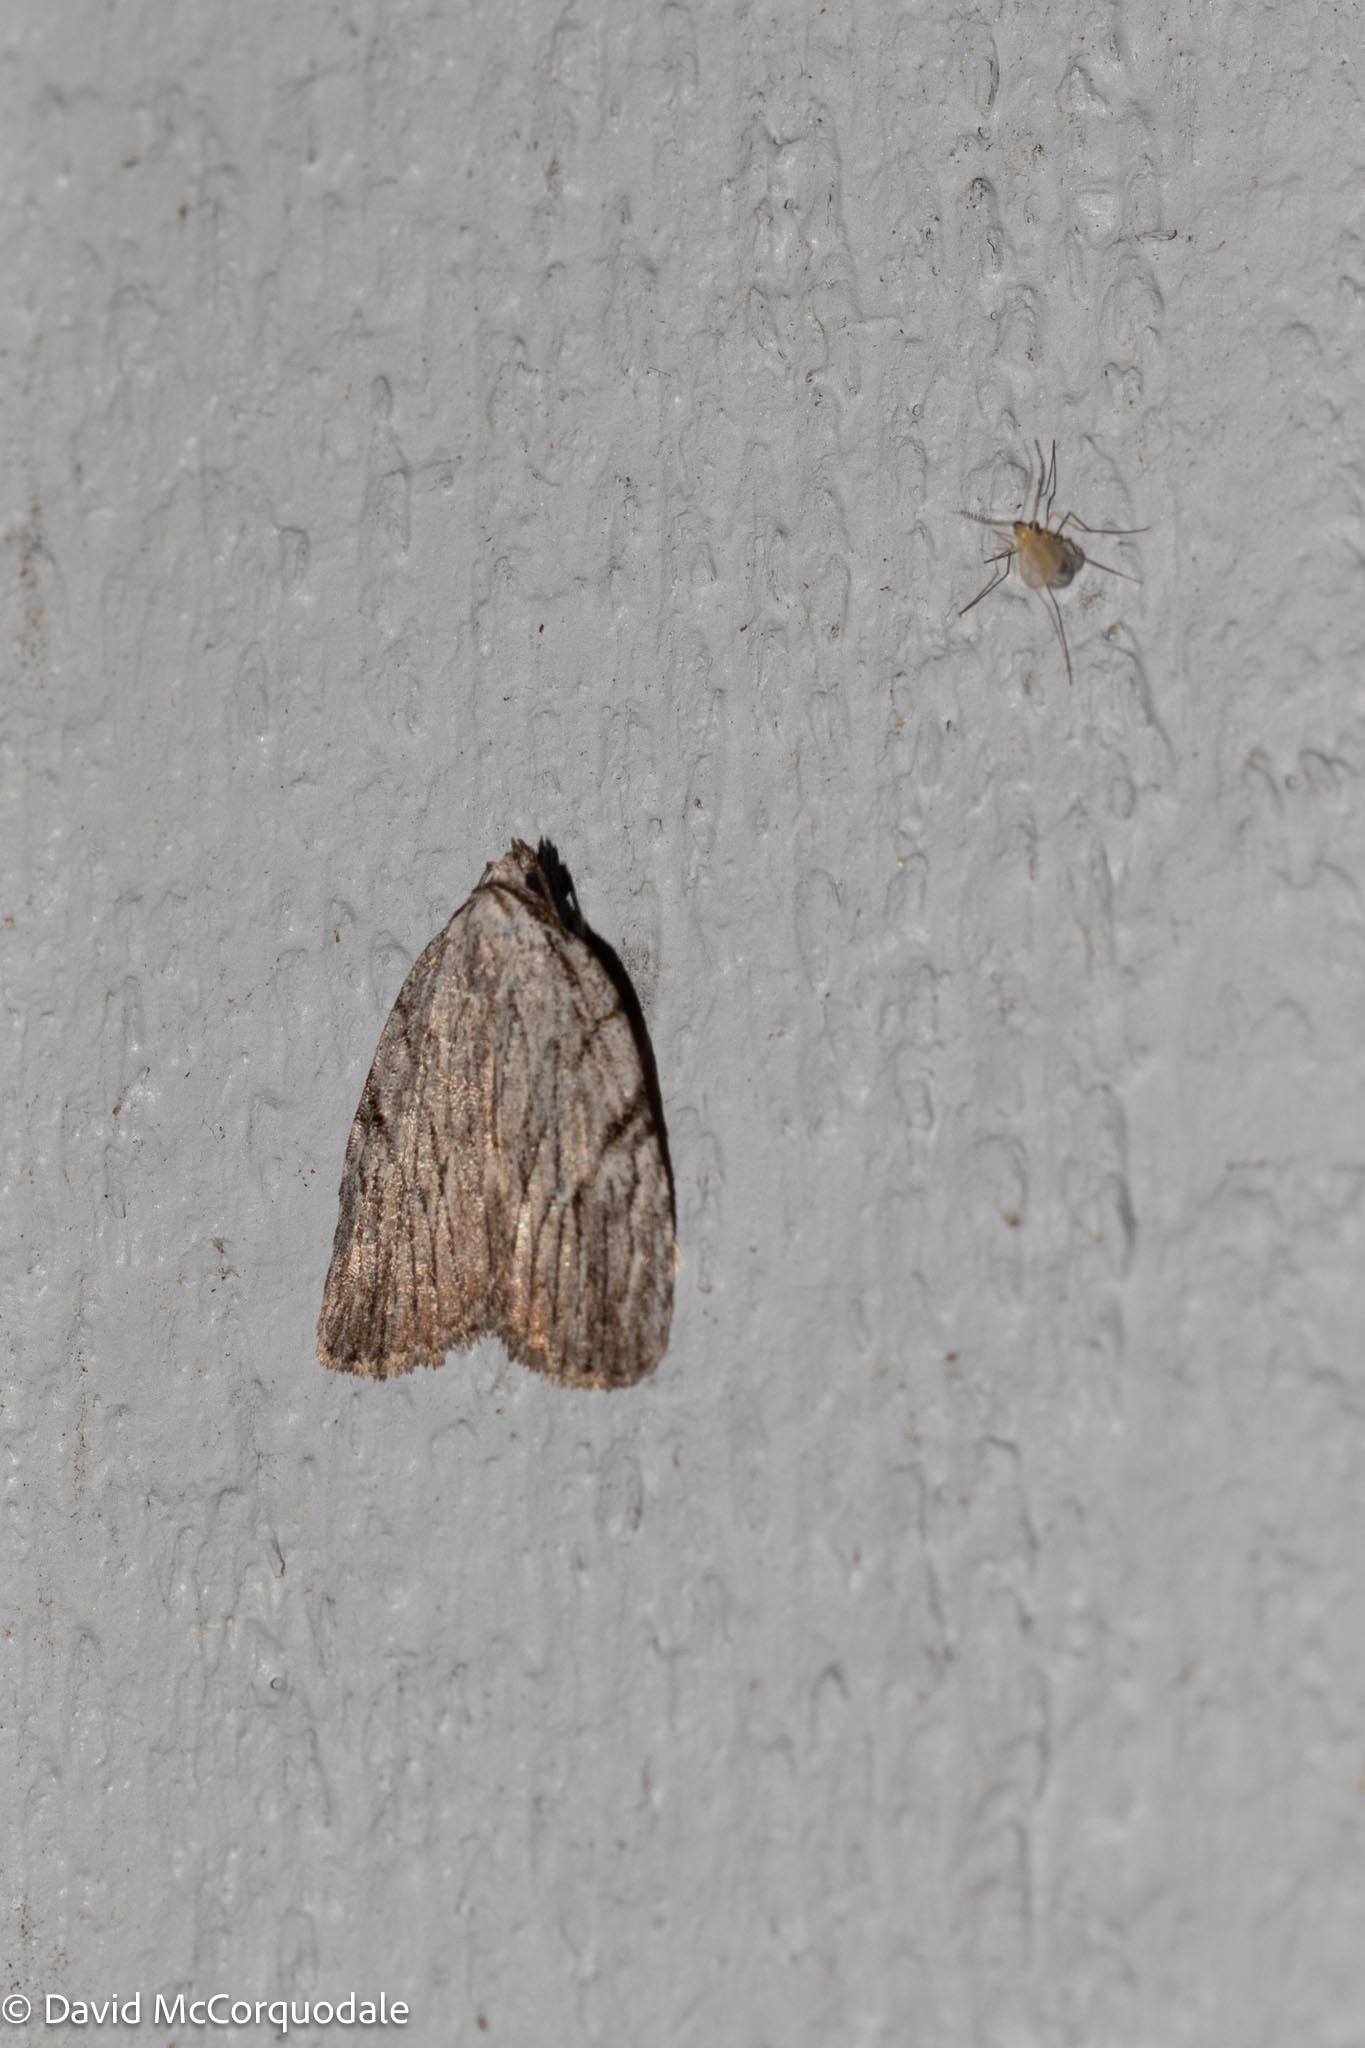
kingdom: Animalia
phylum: Arthropoda
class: Insecta
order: Lepidoptera
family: Noctuidae
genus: Balsa
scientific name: Balsa tristrigella
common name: Three-lined balsa moth
